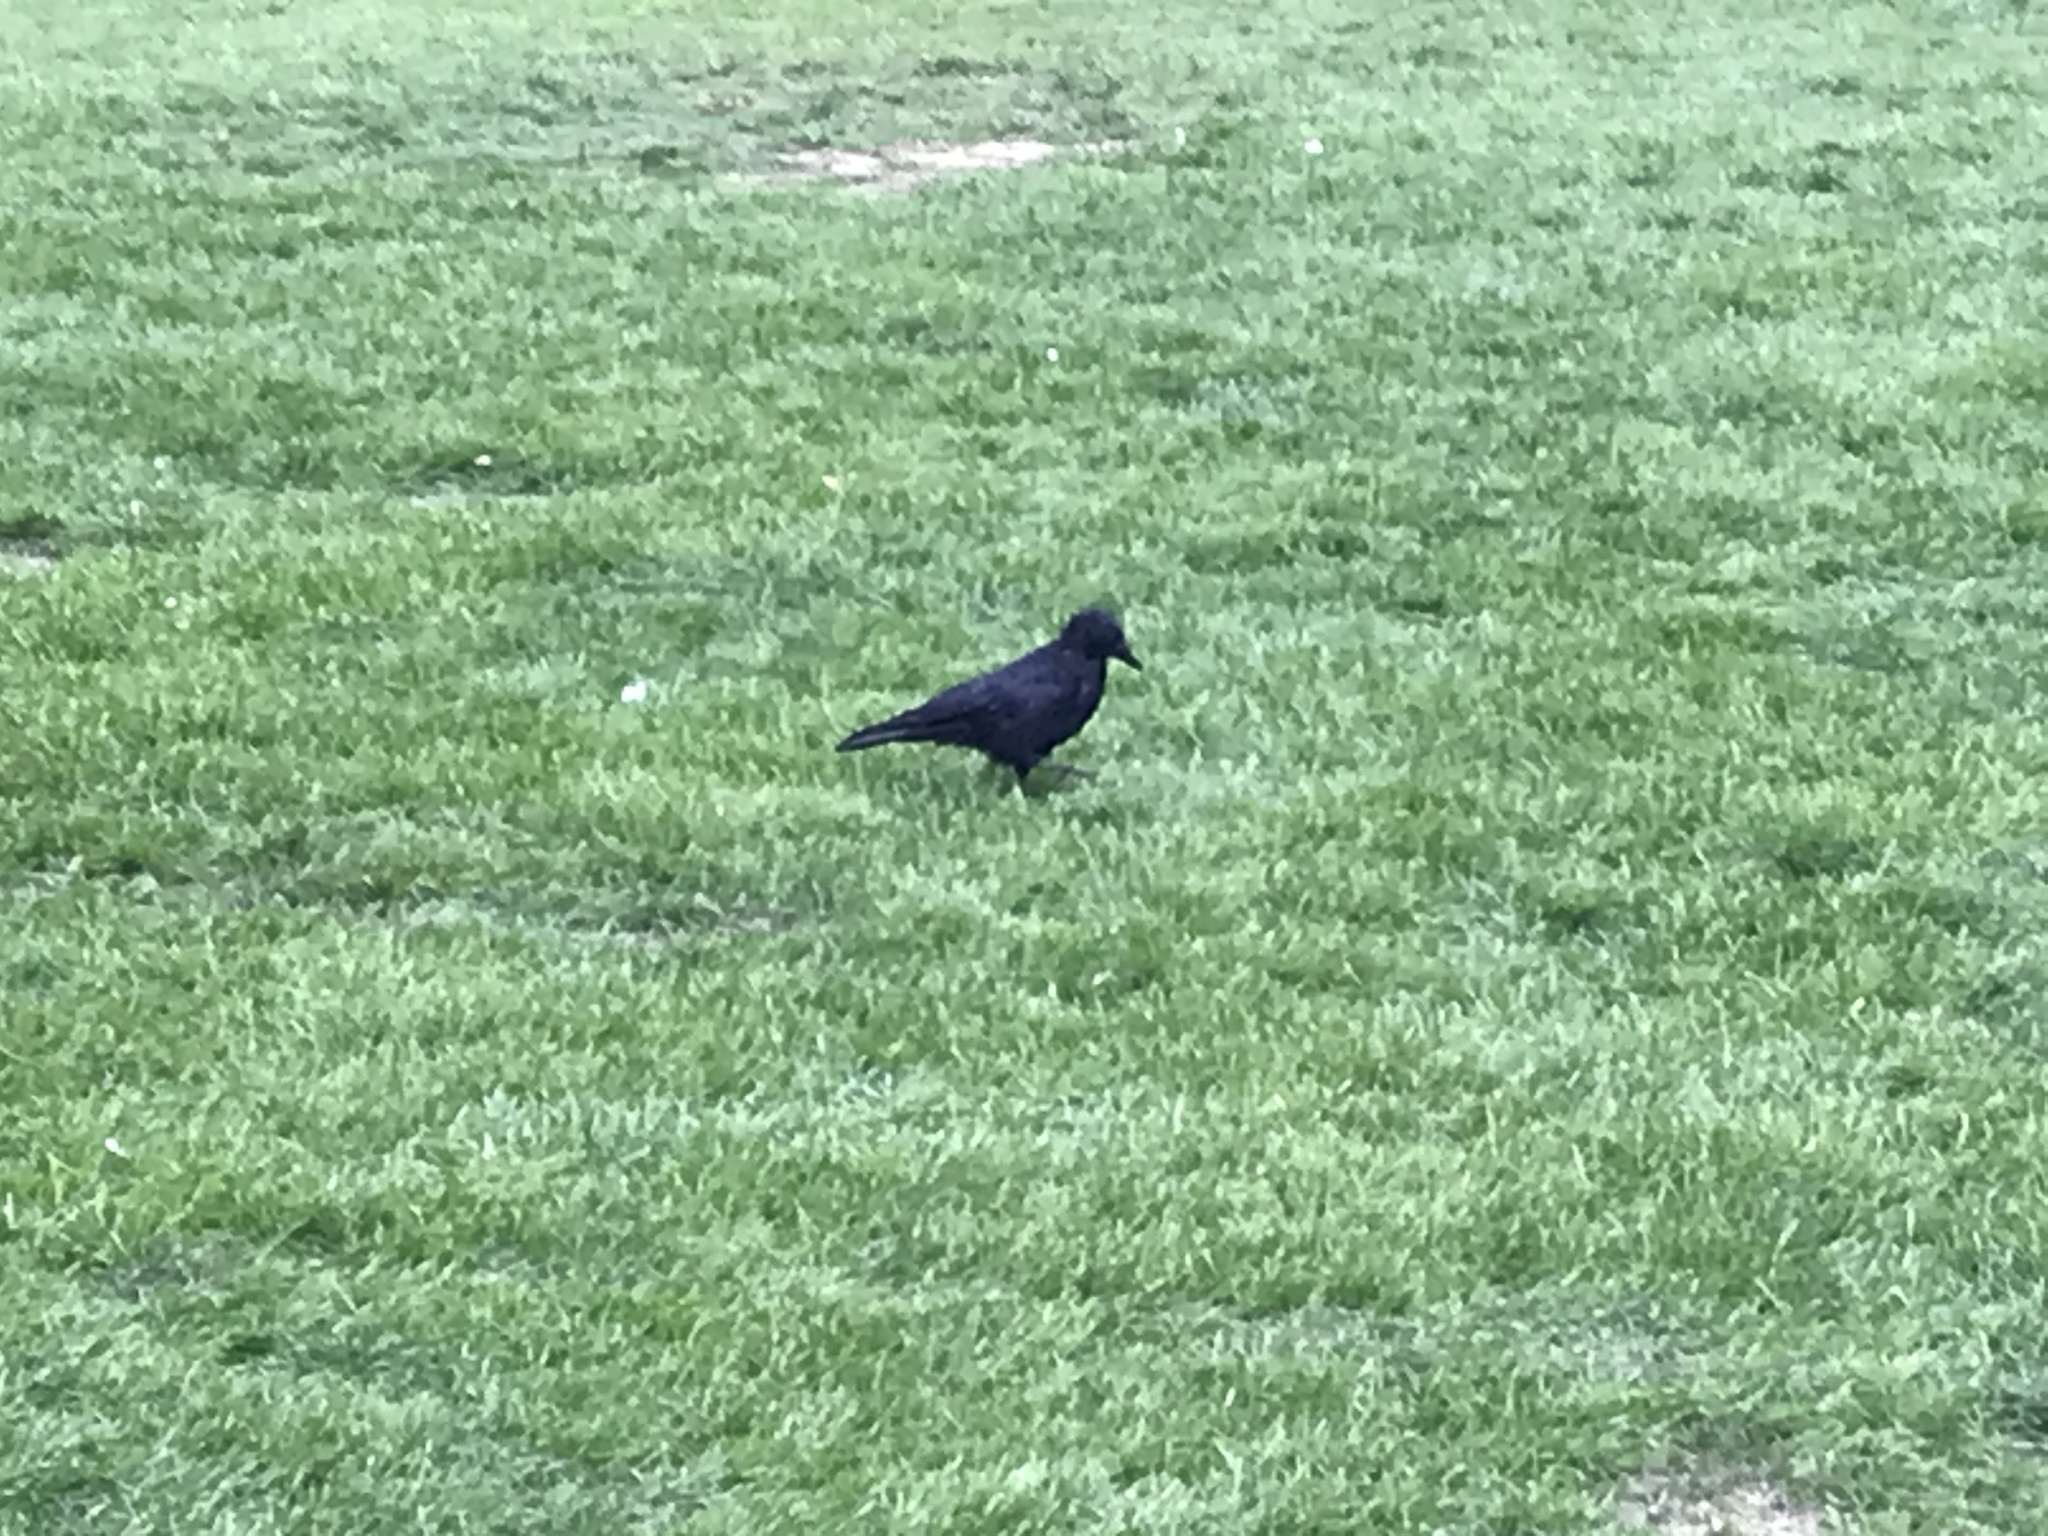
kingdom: Animalia
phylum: Chordata
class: Aves
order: Passeriformes
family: Corvidae
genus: Corvus
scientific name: Corvus corone
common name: Carrion crow
